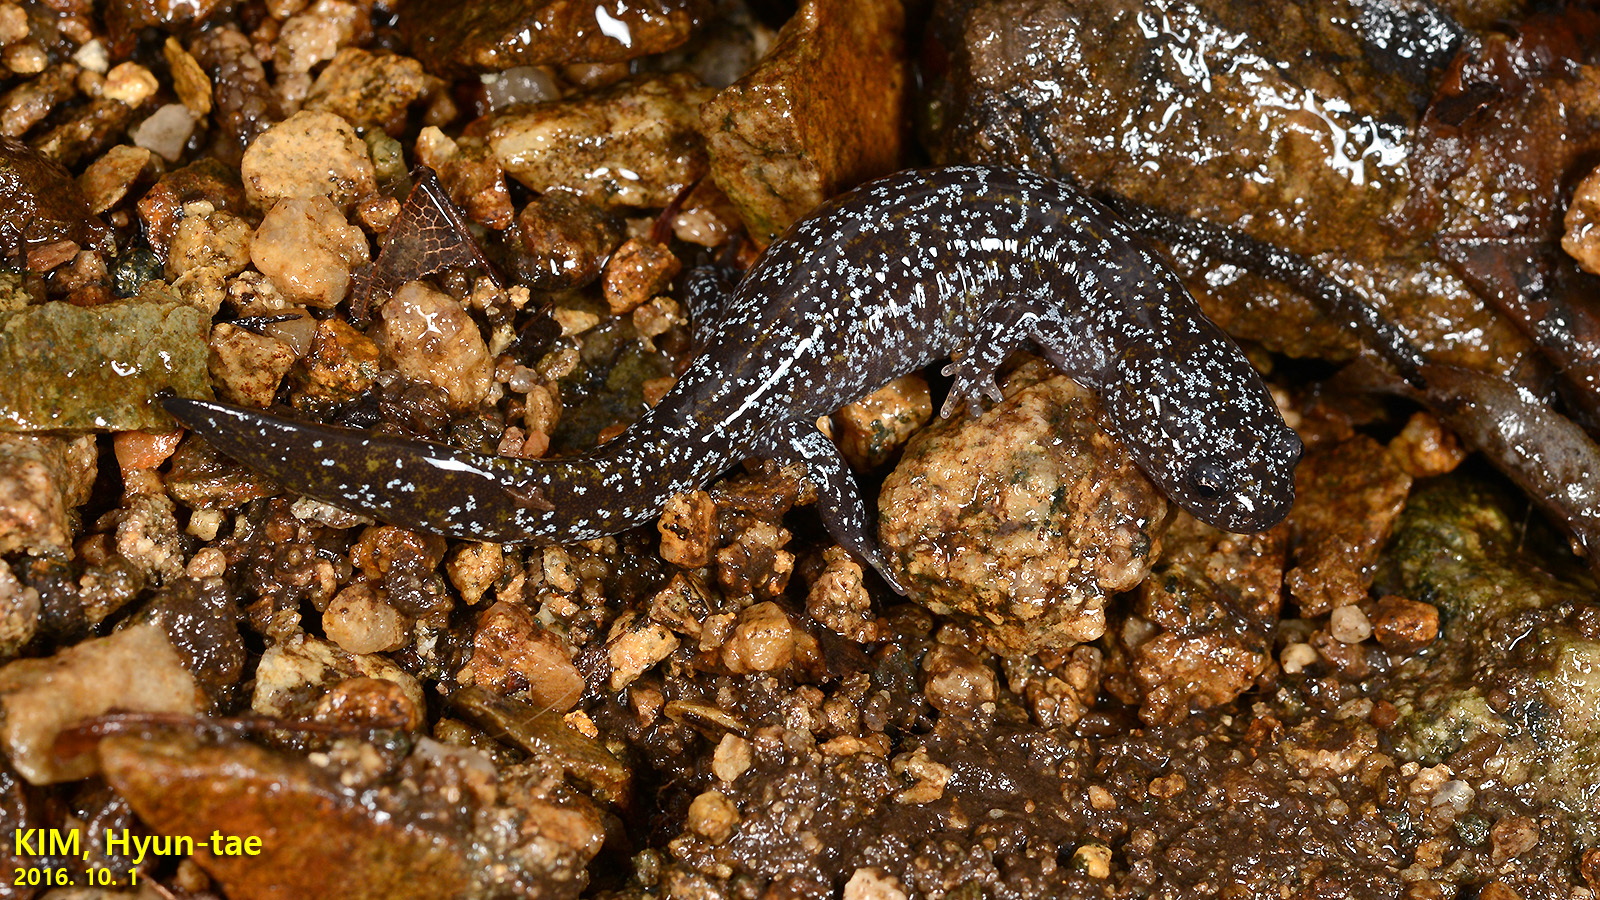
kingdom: Animalia
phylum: Chordata
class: Amphibia
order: Caudata
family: Hynobiidae
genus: Hynobius
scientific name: Hynobius leechii
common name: Gensan salamander
